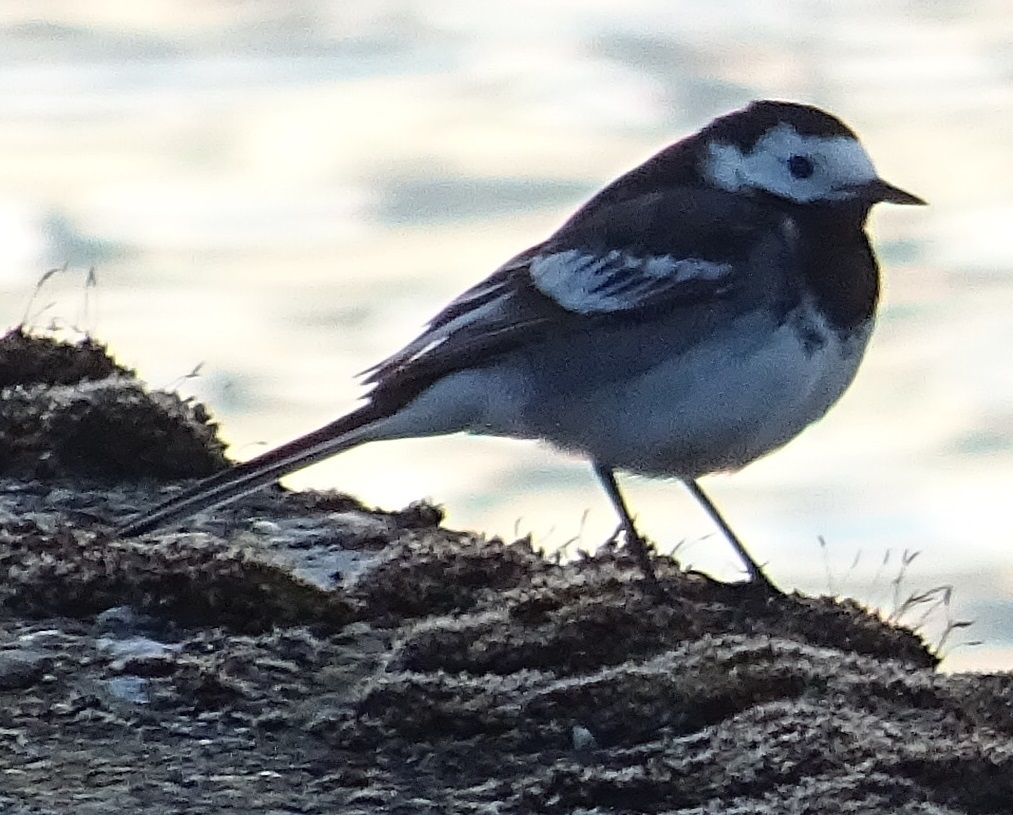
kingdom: Animalia
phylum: Chordata
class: Aves
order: Passeriformes
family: Motacillidae
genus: Motacilla
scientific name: Motacilla alba
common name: White wagtail
